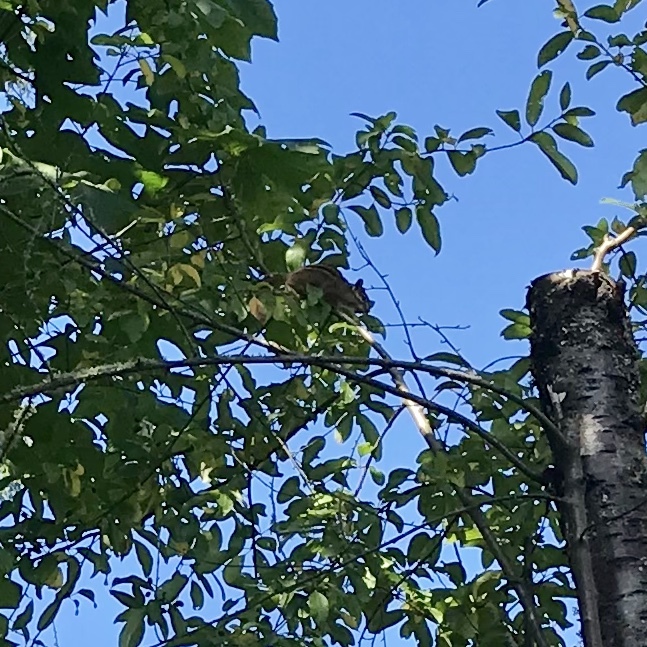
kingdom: Animalia
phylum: Chordata
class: Mammalia
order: Rodentia
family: Sciuridae
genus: Tamias
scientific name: Tamias townsendii
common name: Townsend's chipmunk
